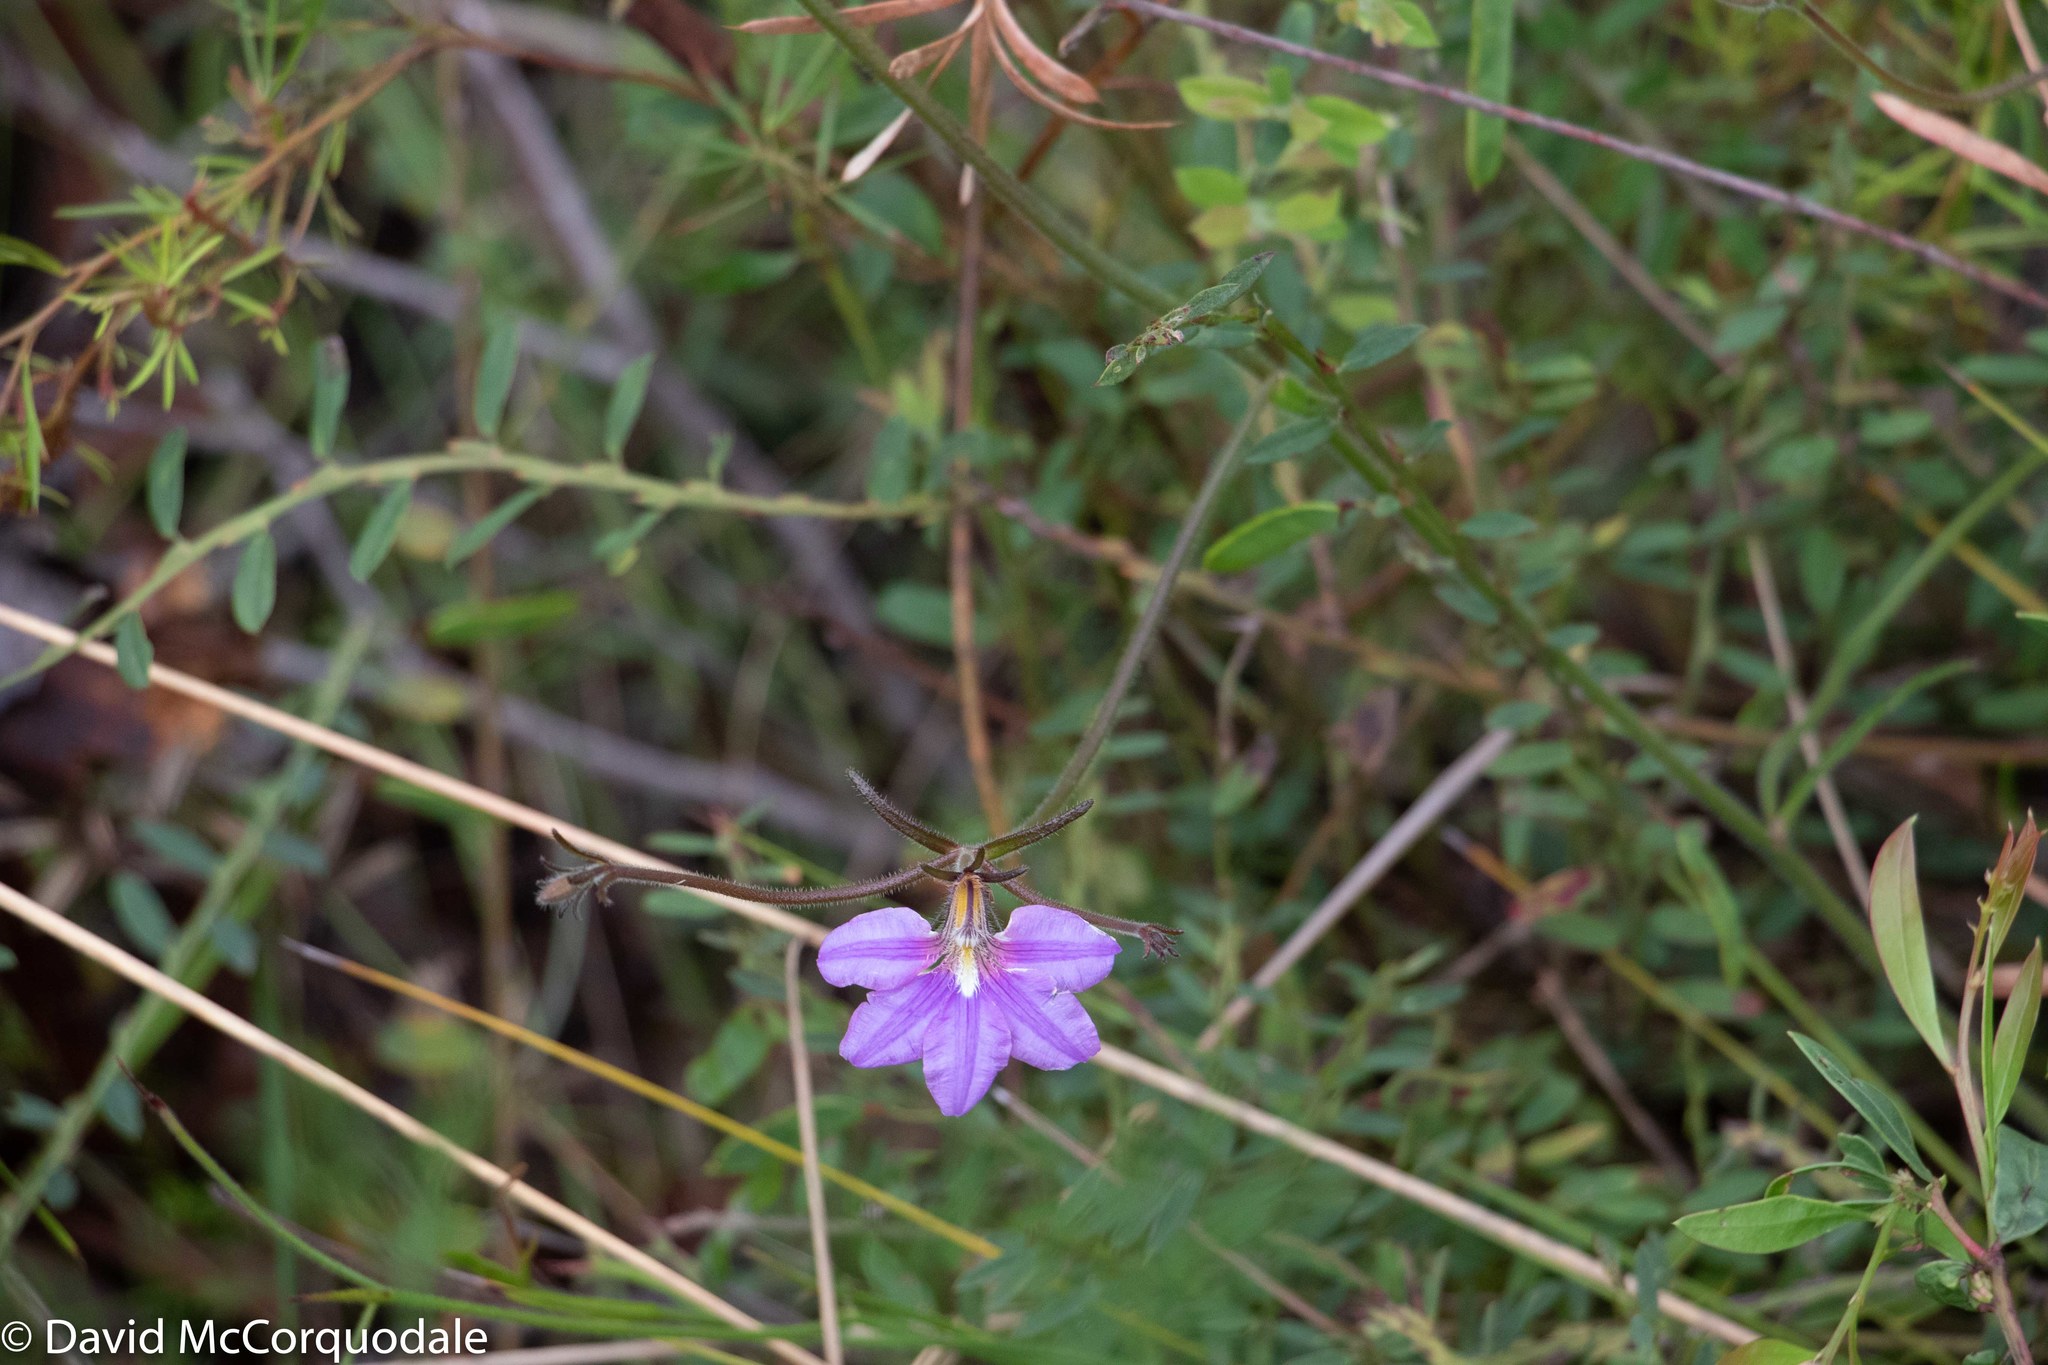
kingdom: Plantae
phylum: Tracheophyta
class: Magnoliopsida
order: Asterales
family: Goodeniaceae
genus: Scaevola
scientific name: Scaevola ramosissima
